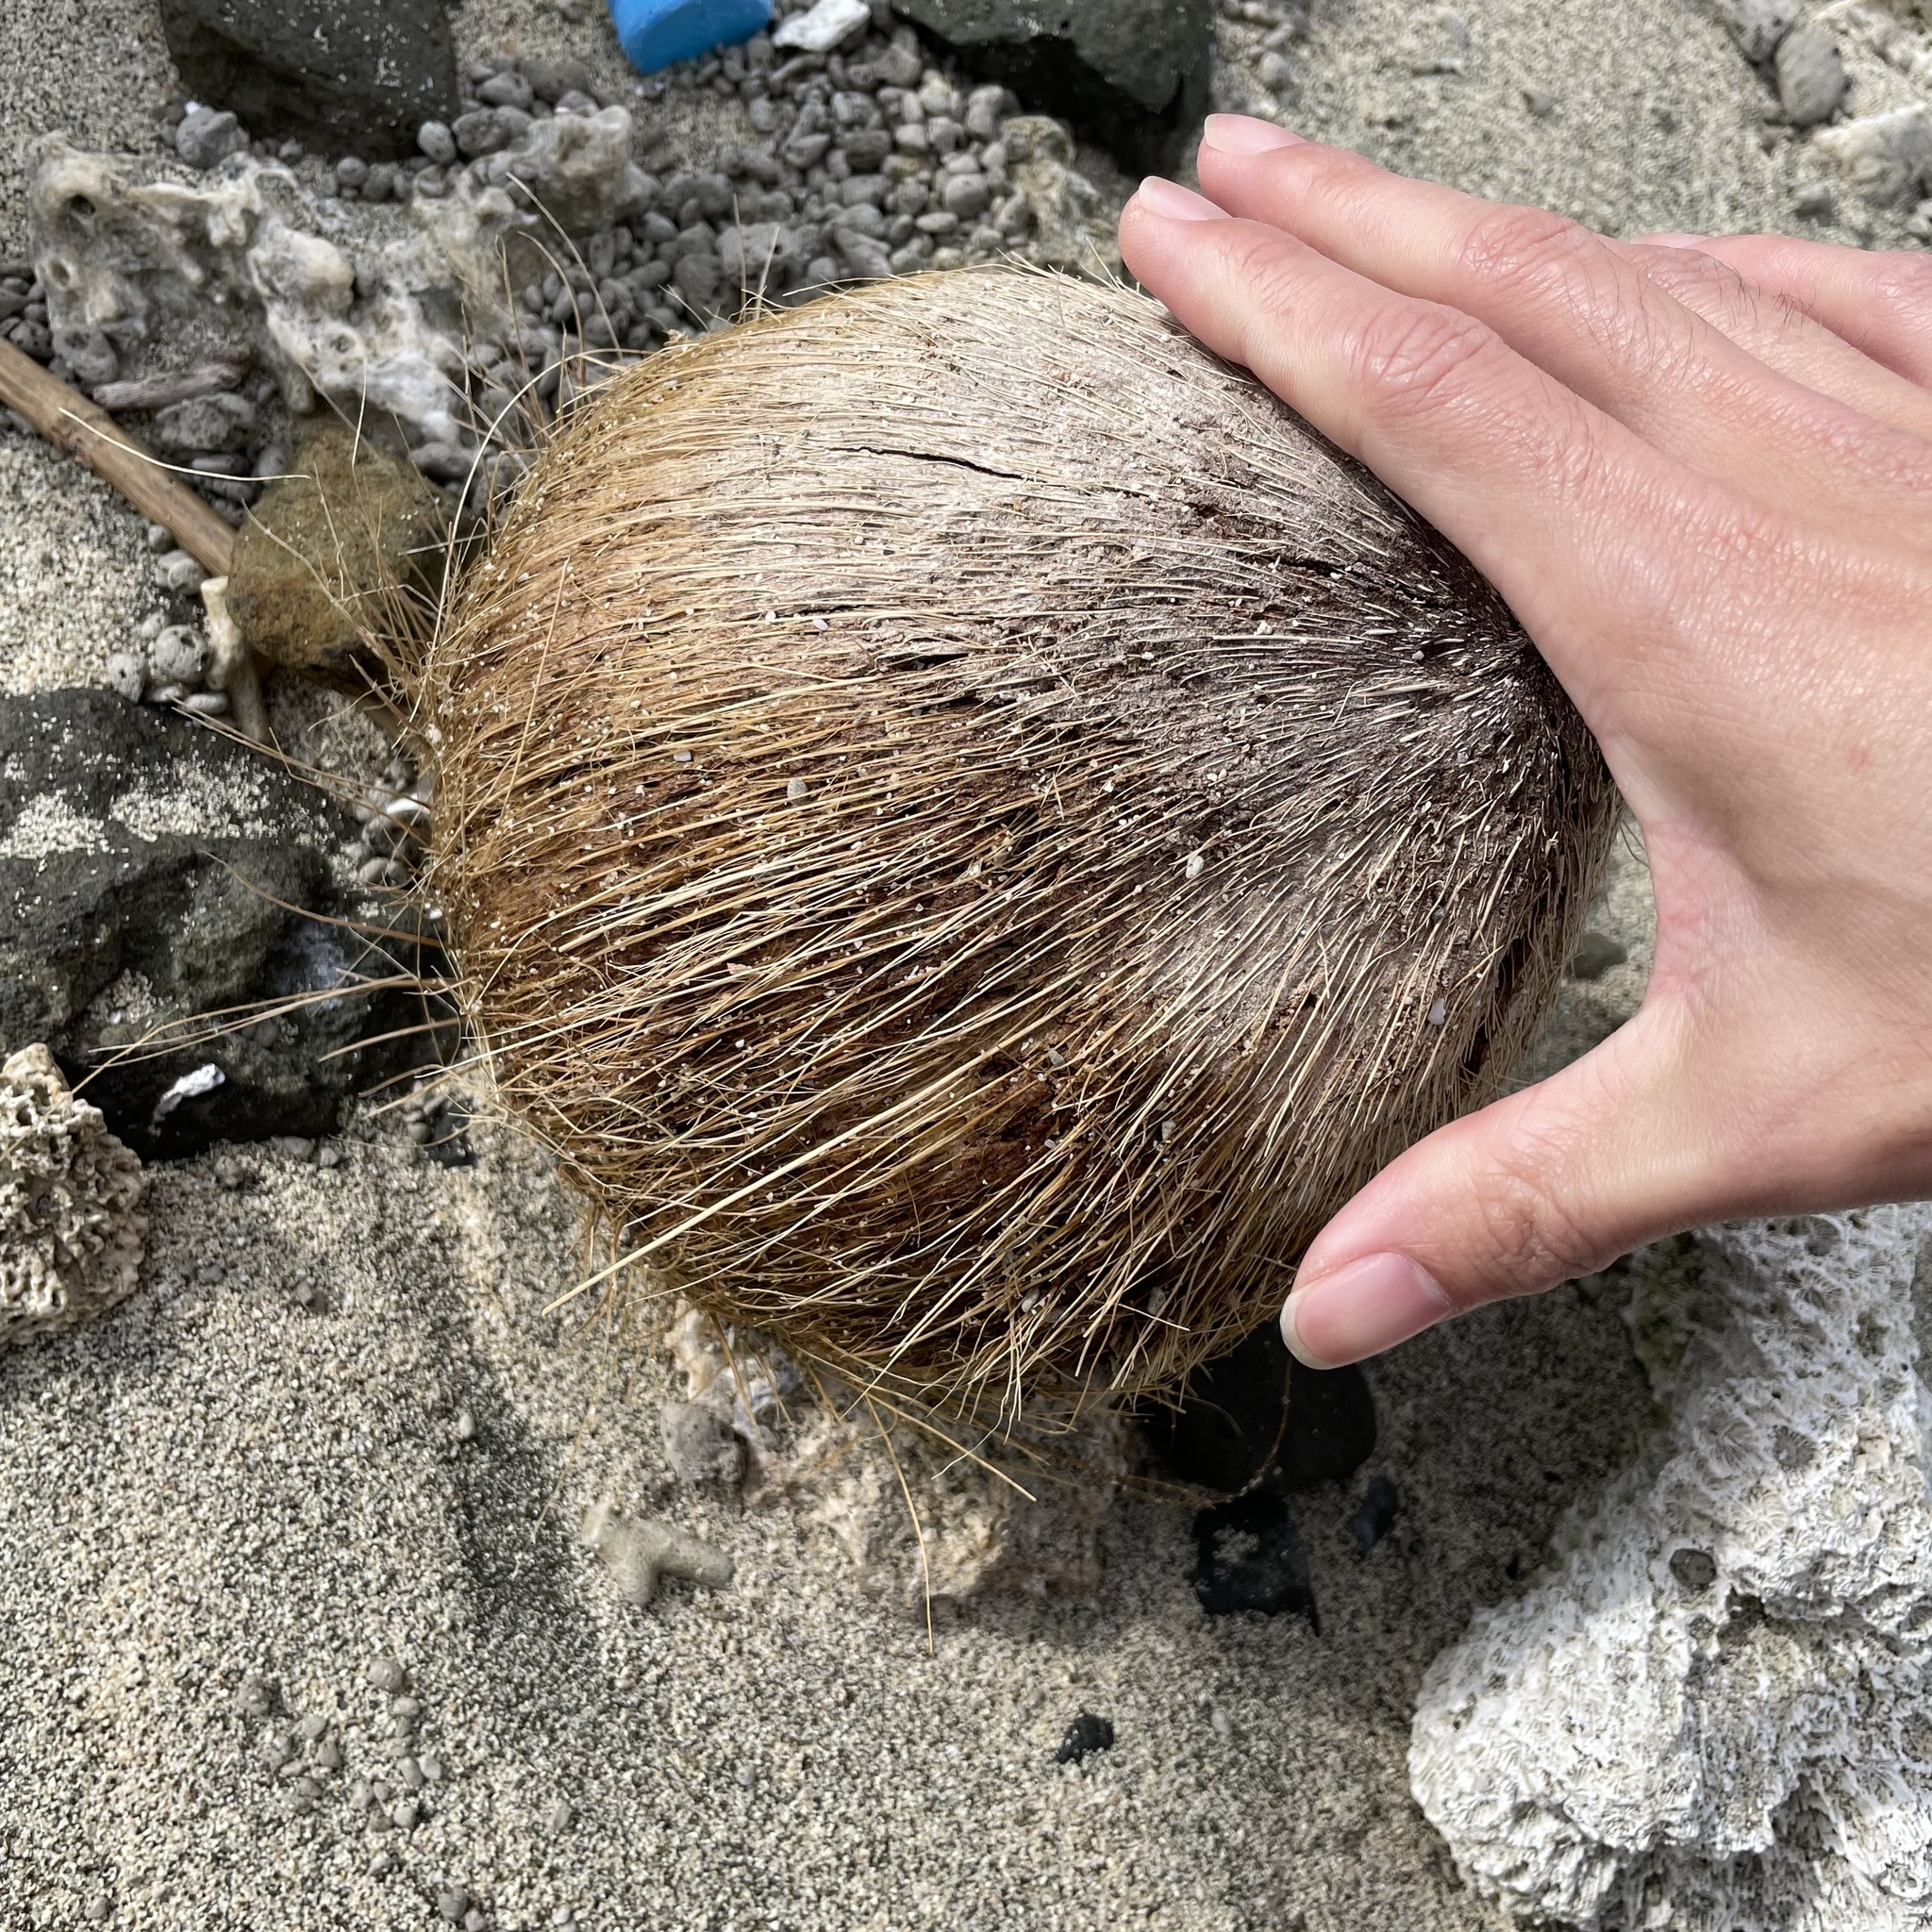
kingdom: Plantae
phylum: Tracheophyta
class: Liliopsida
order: Arecales
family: Arecaceae
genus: Cocos
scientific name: Cocos nucifera
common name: Coconut palm
